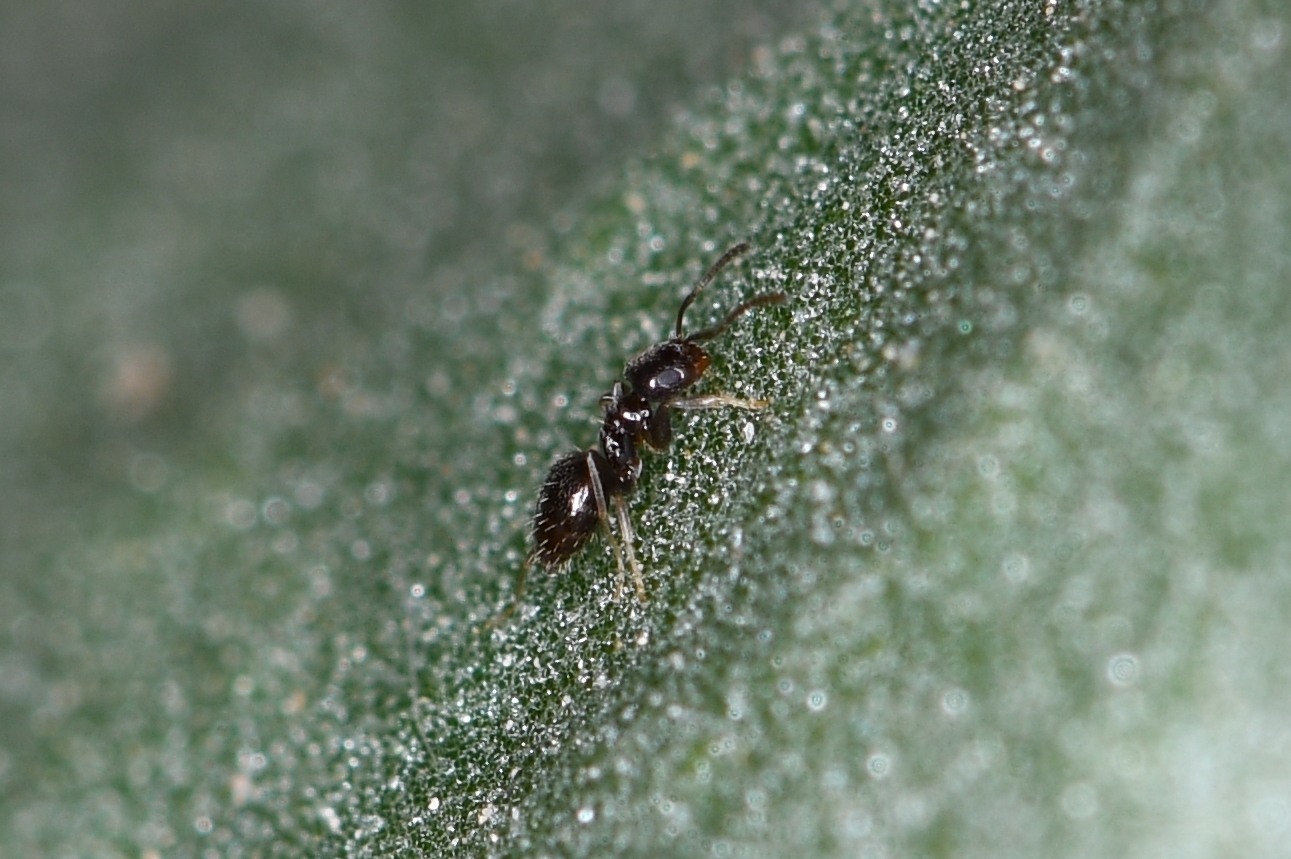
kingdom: Animalia
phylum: Arthropoda
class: Insecta
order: Hymenoptera
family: Formicidae
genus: Brachymyrmex
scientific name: Brachymyrmex patagonicus
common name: Dark rover ant
